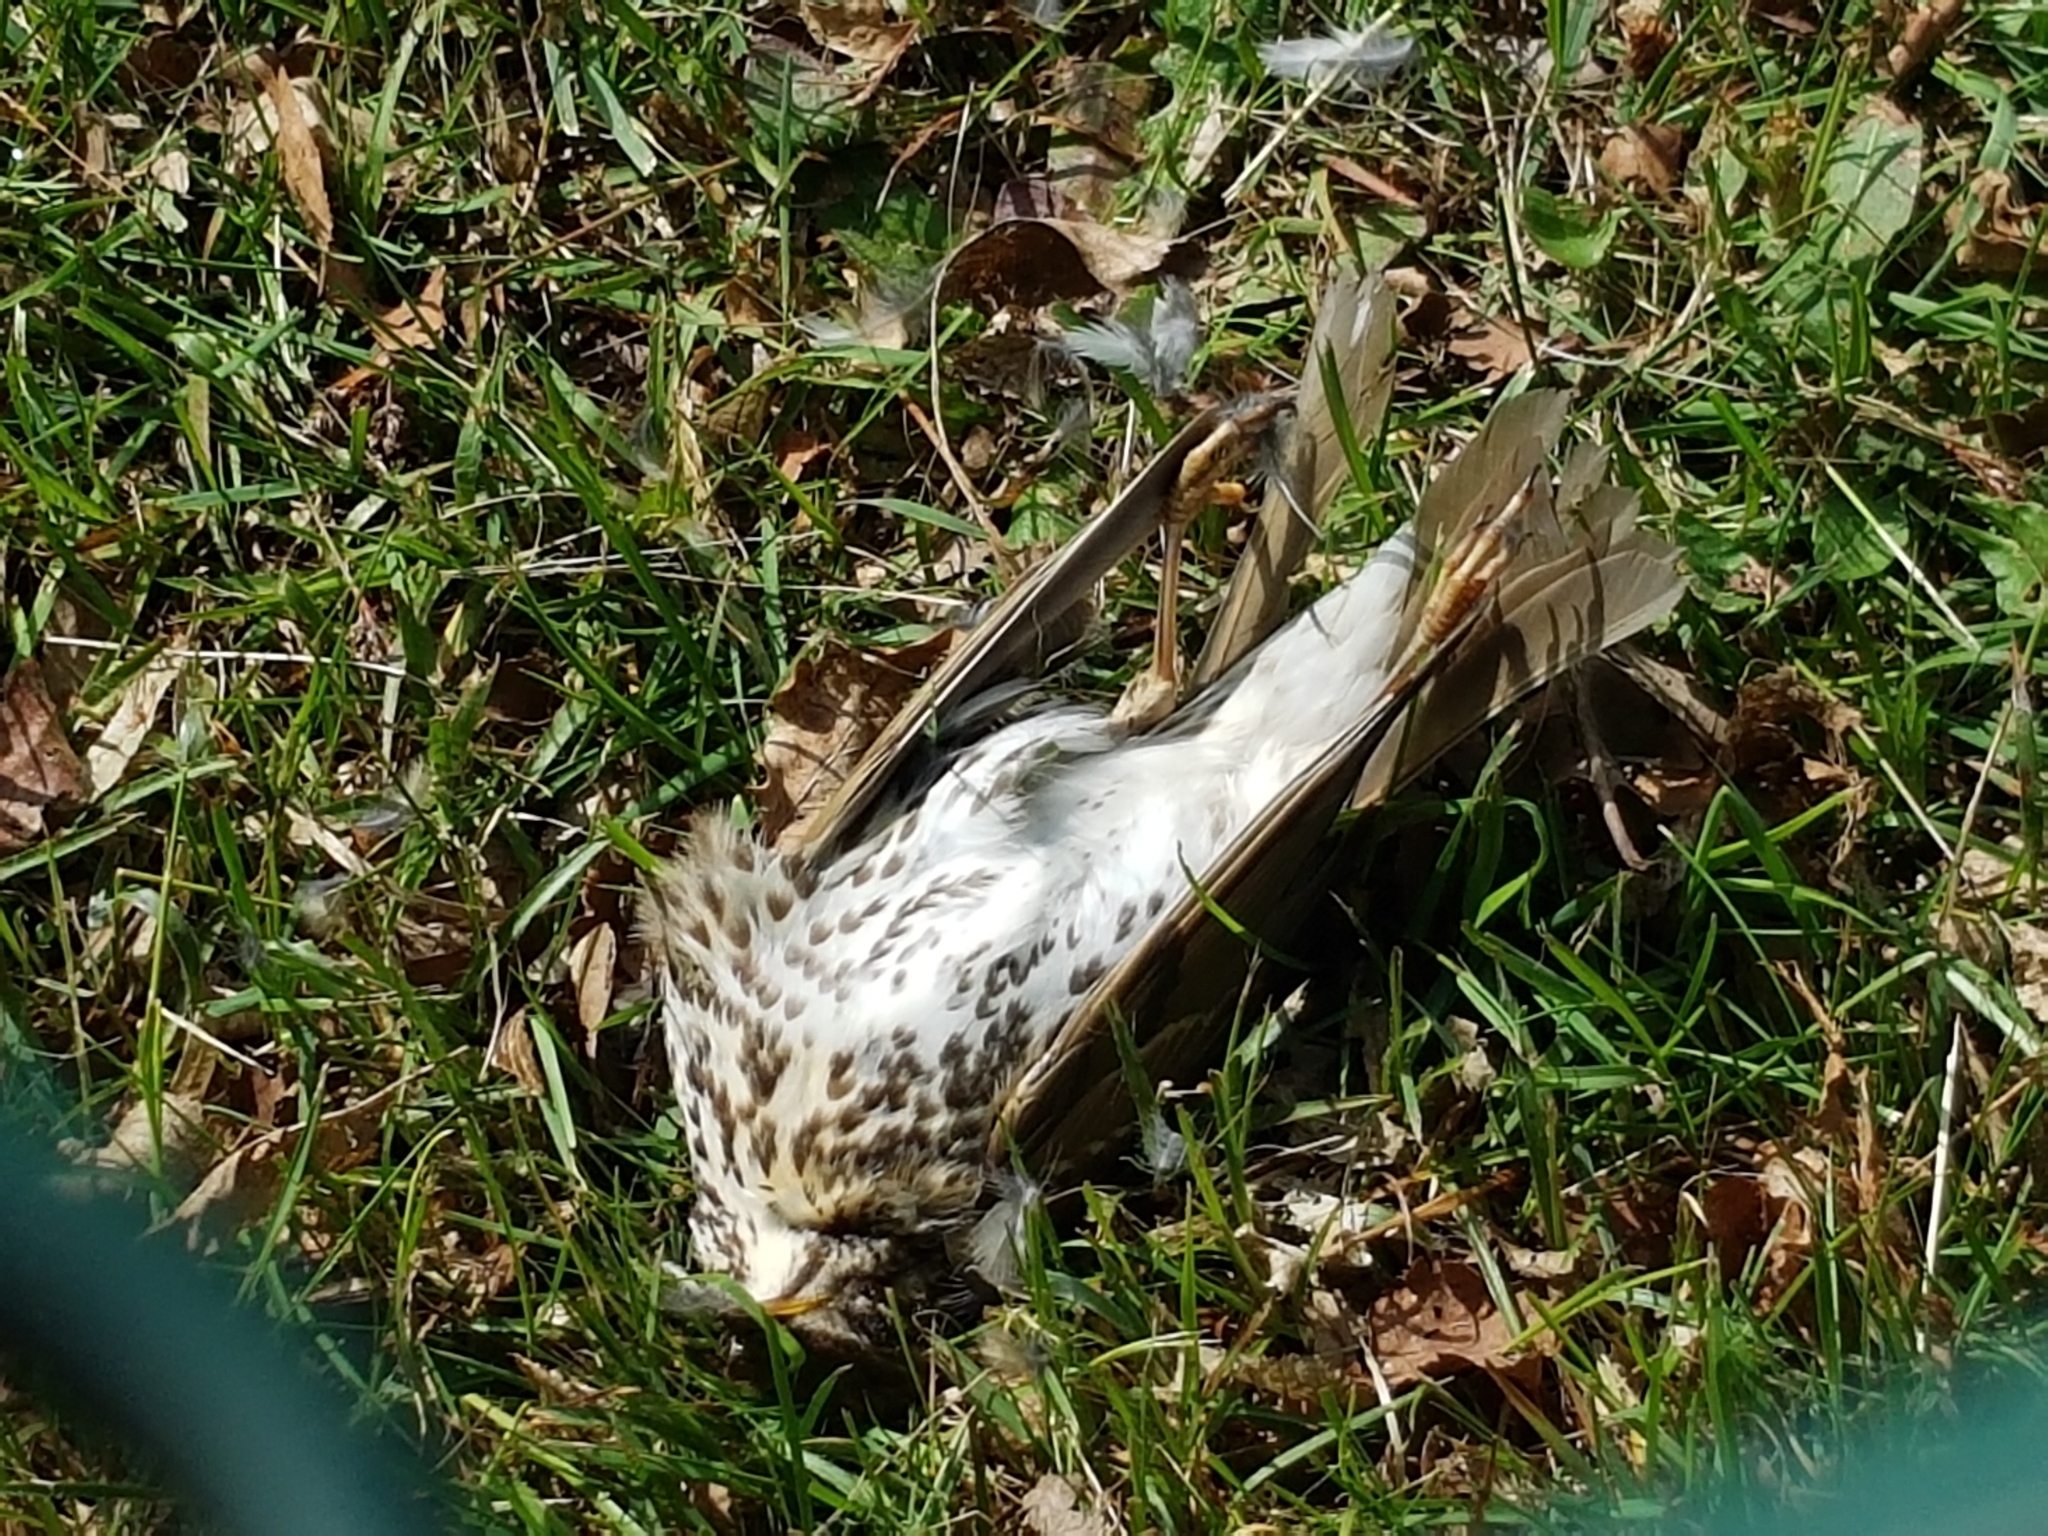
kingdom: Animalia
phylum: Chordata
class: Aves
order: Passeriformes
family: Turdidae
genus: Turdus
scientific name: Turdus philomelos
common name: Song thrush
